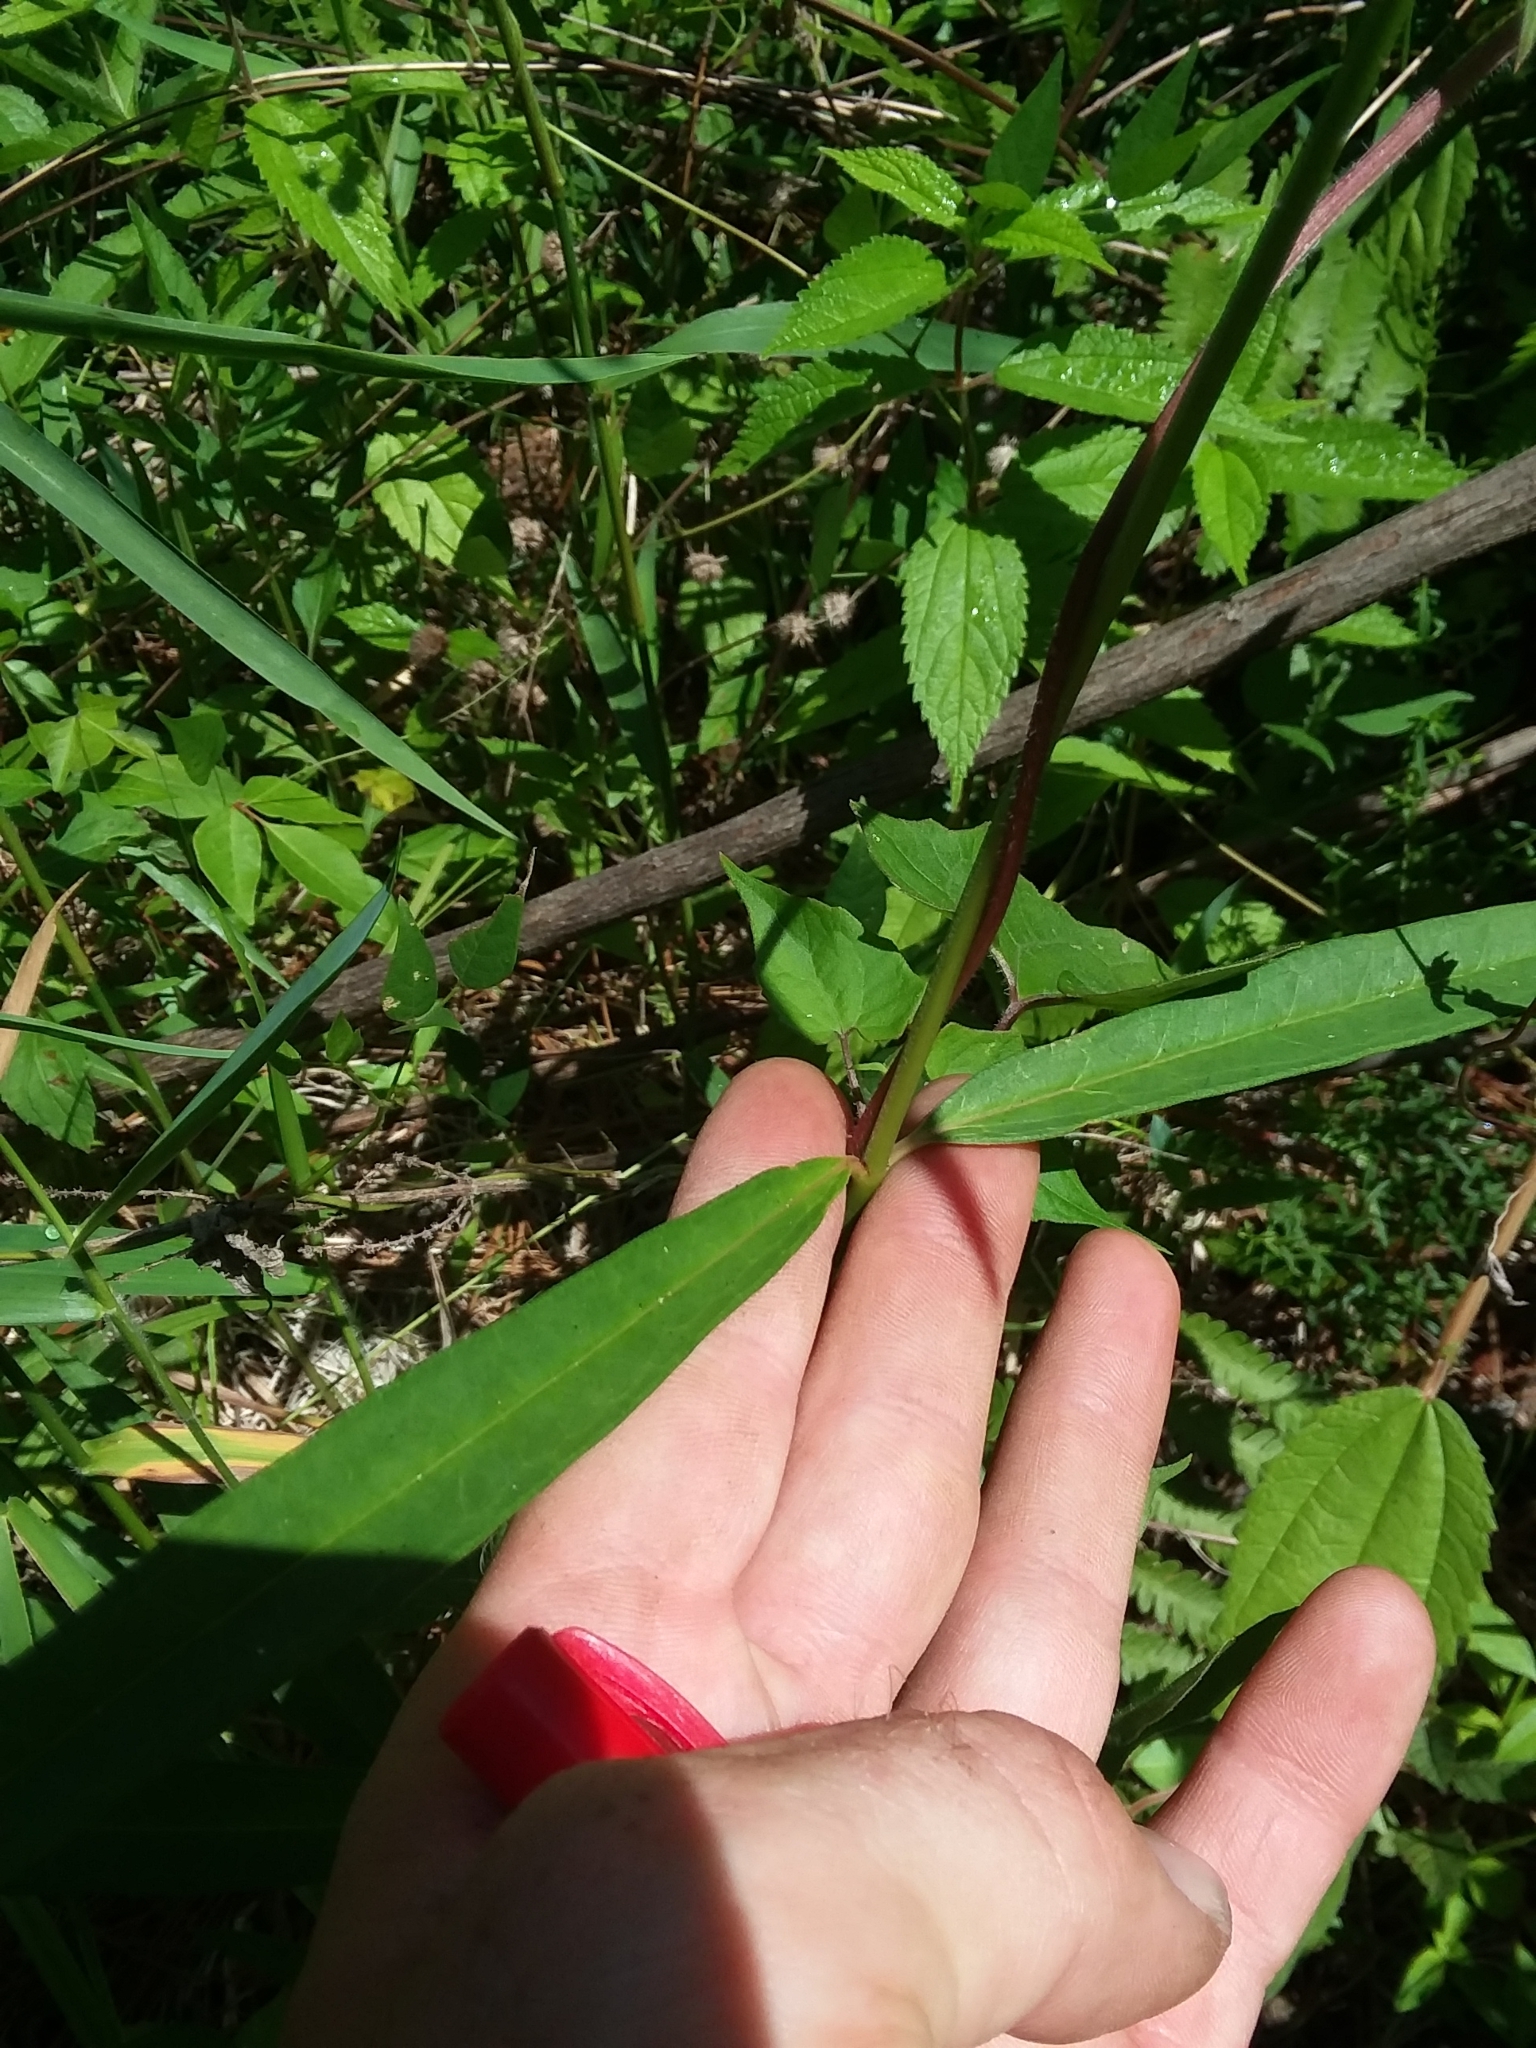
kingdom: Plantae
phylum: Tracheophyta
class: Magnoliopsida
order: Gentianales
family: Apocynaceae
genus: Asclepias
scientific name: Asclepias lanceolata
